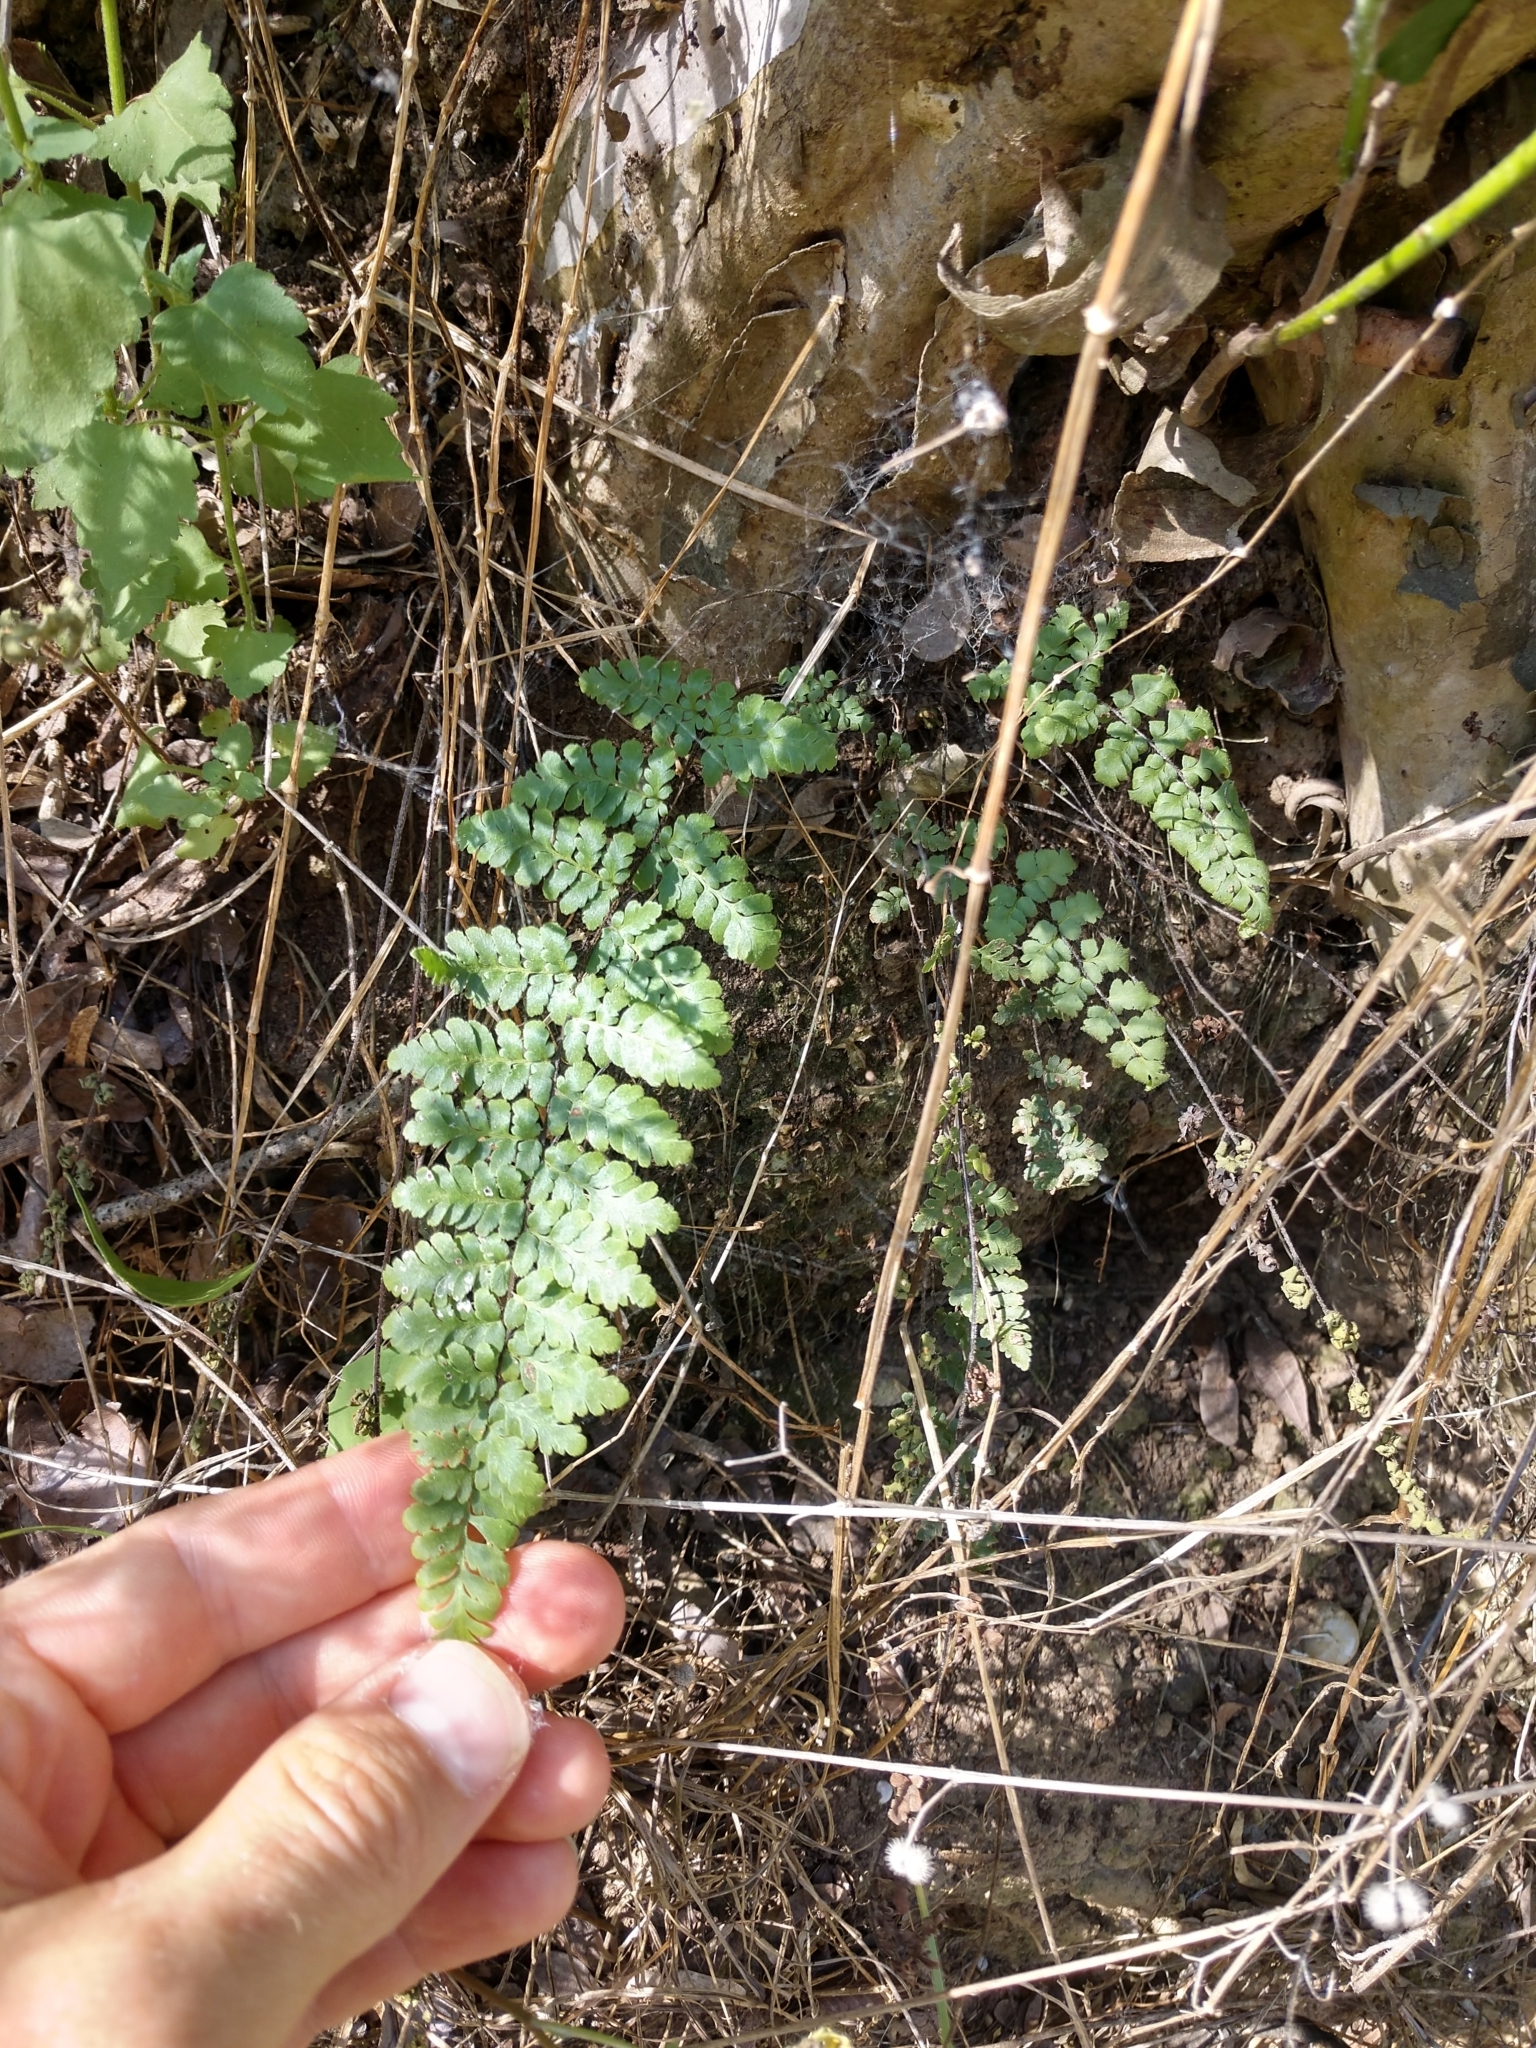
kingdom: Plantae
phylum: Tracheophyta
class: Polypodiopsida
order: Polypodiales
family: Pteridaceae
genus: Myriopteris
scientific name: Myriopteris alabamensis
